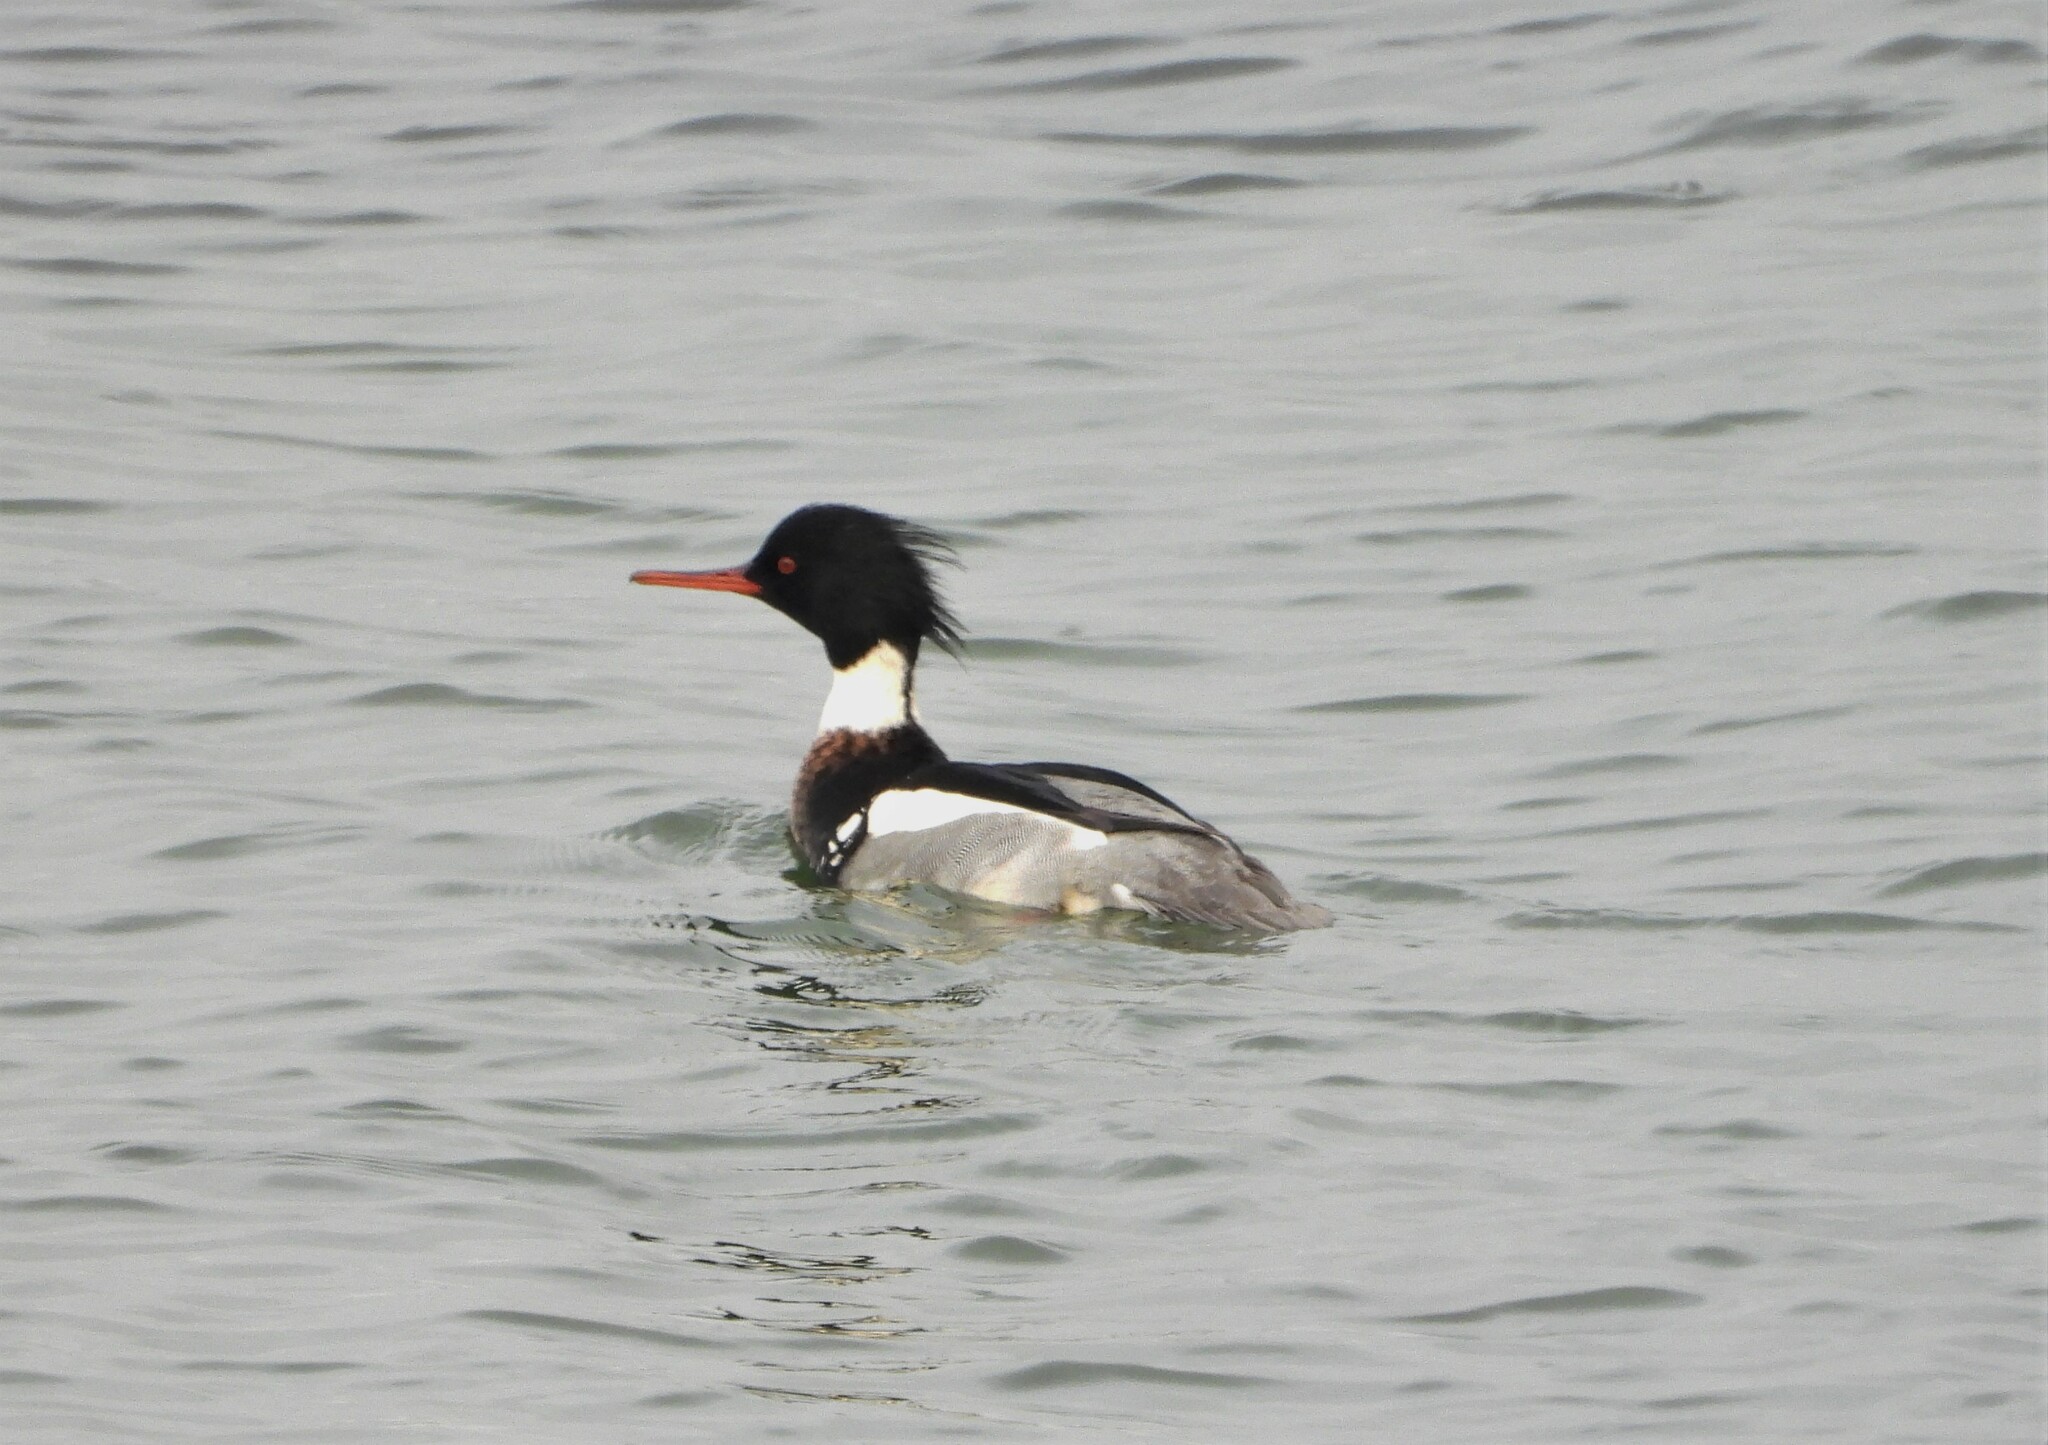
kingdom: Animalia
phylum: Chordata
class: Aves
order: Anseriformes
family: Anatidae
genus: Mergus
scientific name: Mergus serrator
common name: Red-breasted merganser
